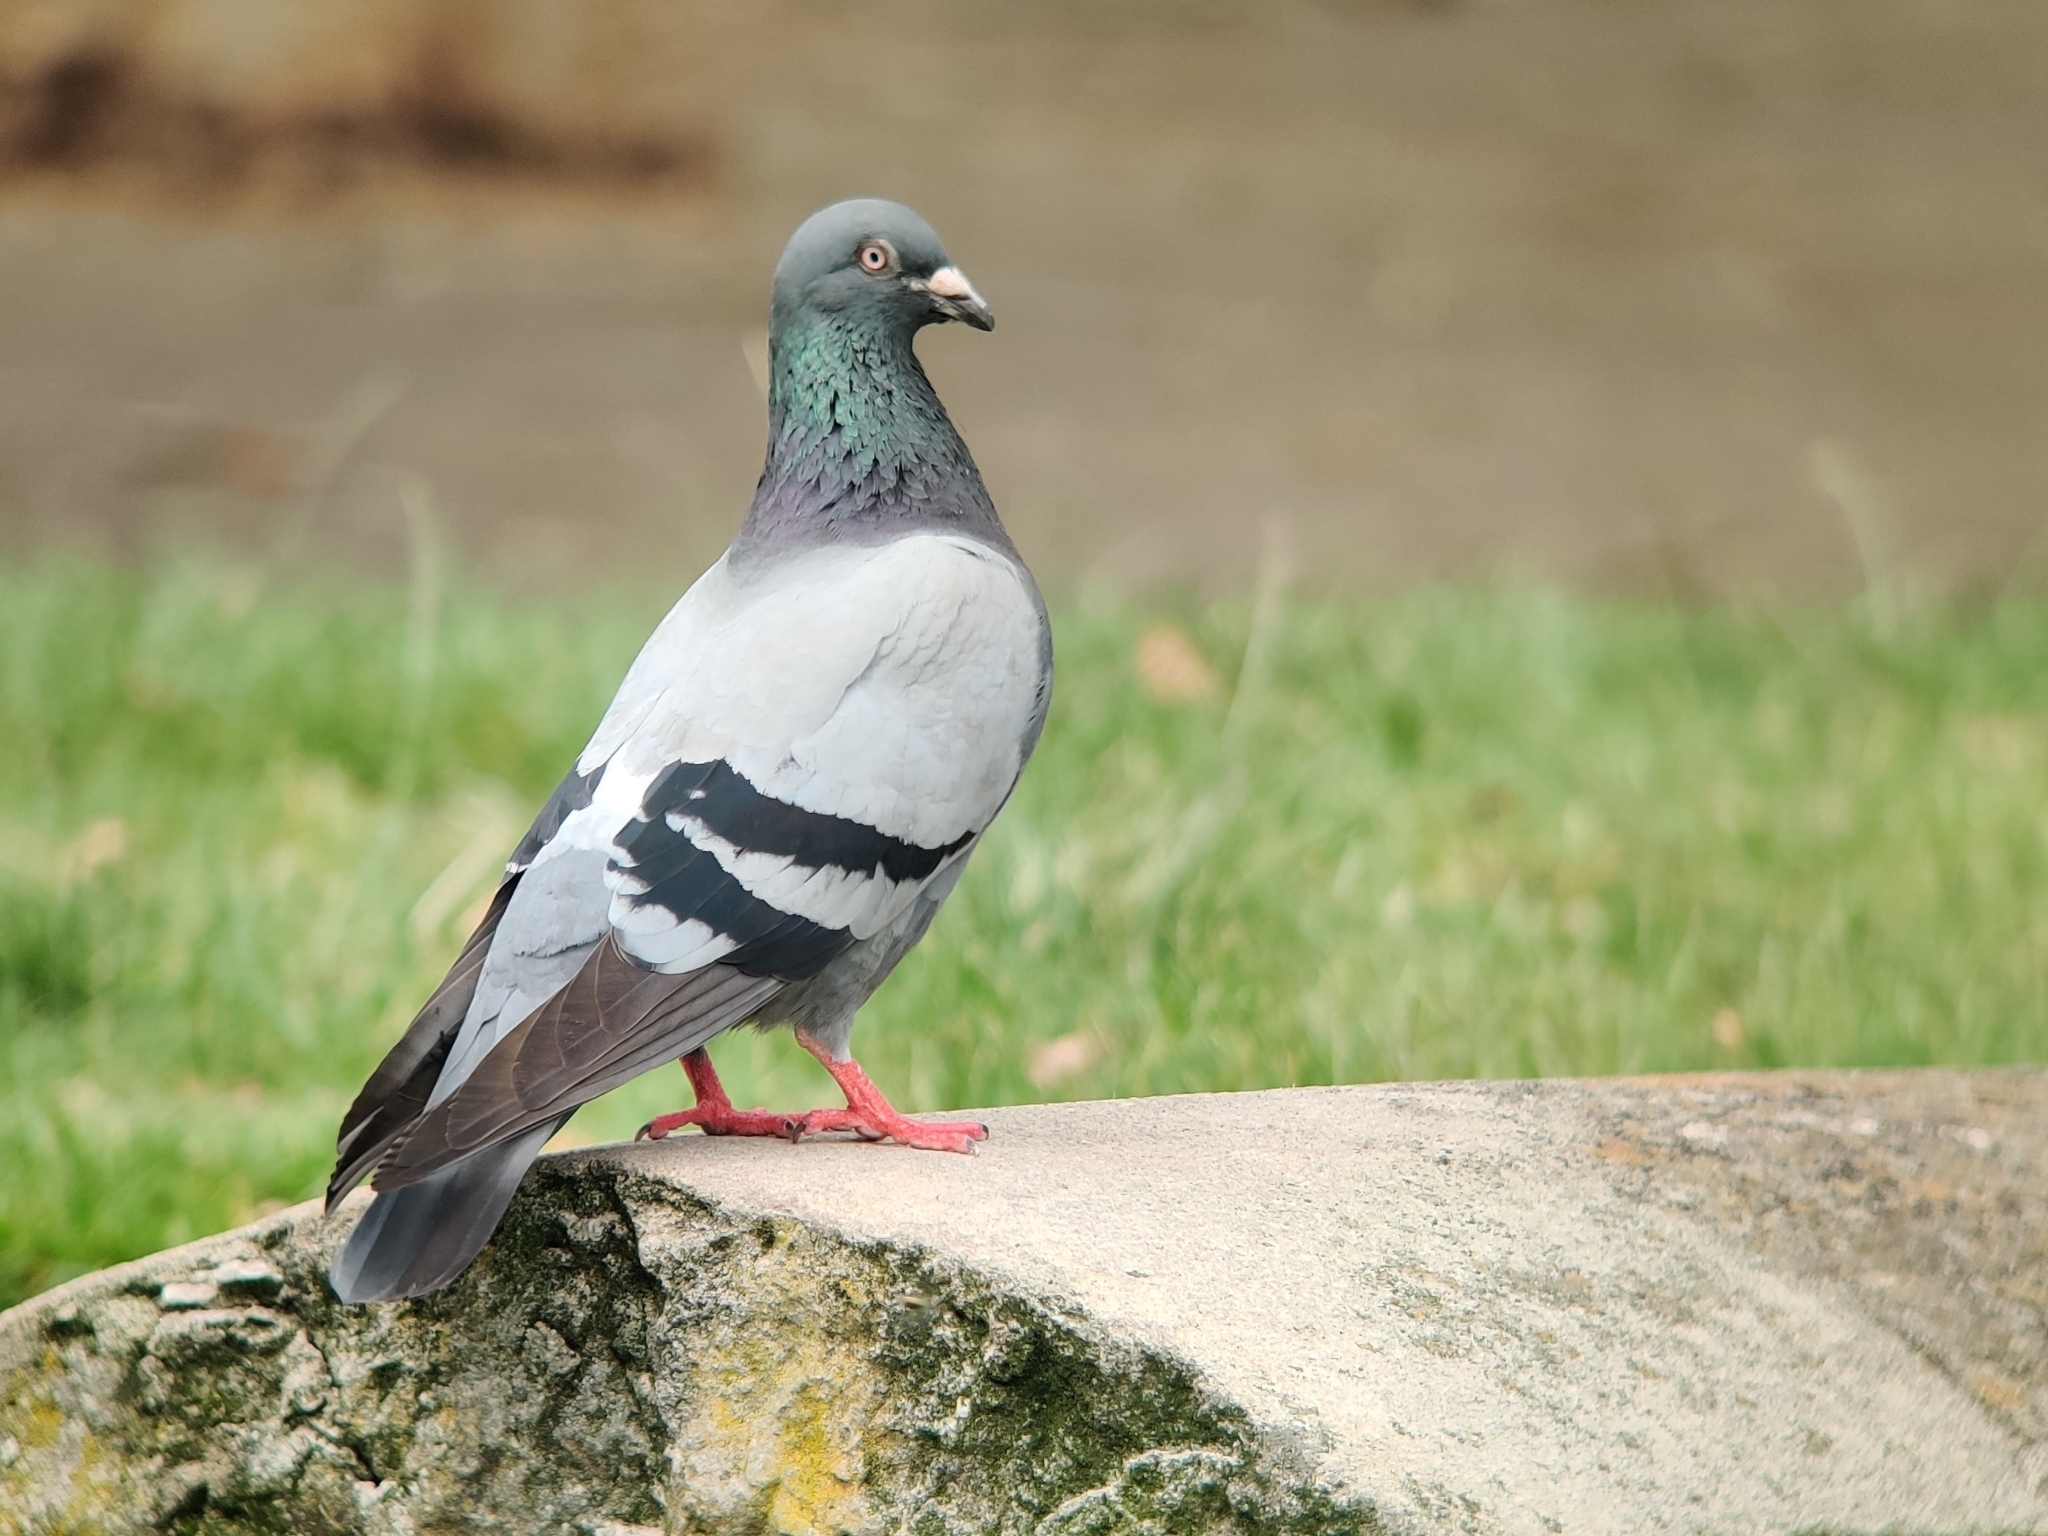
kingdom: Animalia
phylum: Chordata
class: Aves
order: Columbiformes
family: Columbidae
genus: Columba
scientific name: Columba livia
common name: Rock pigeon
